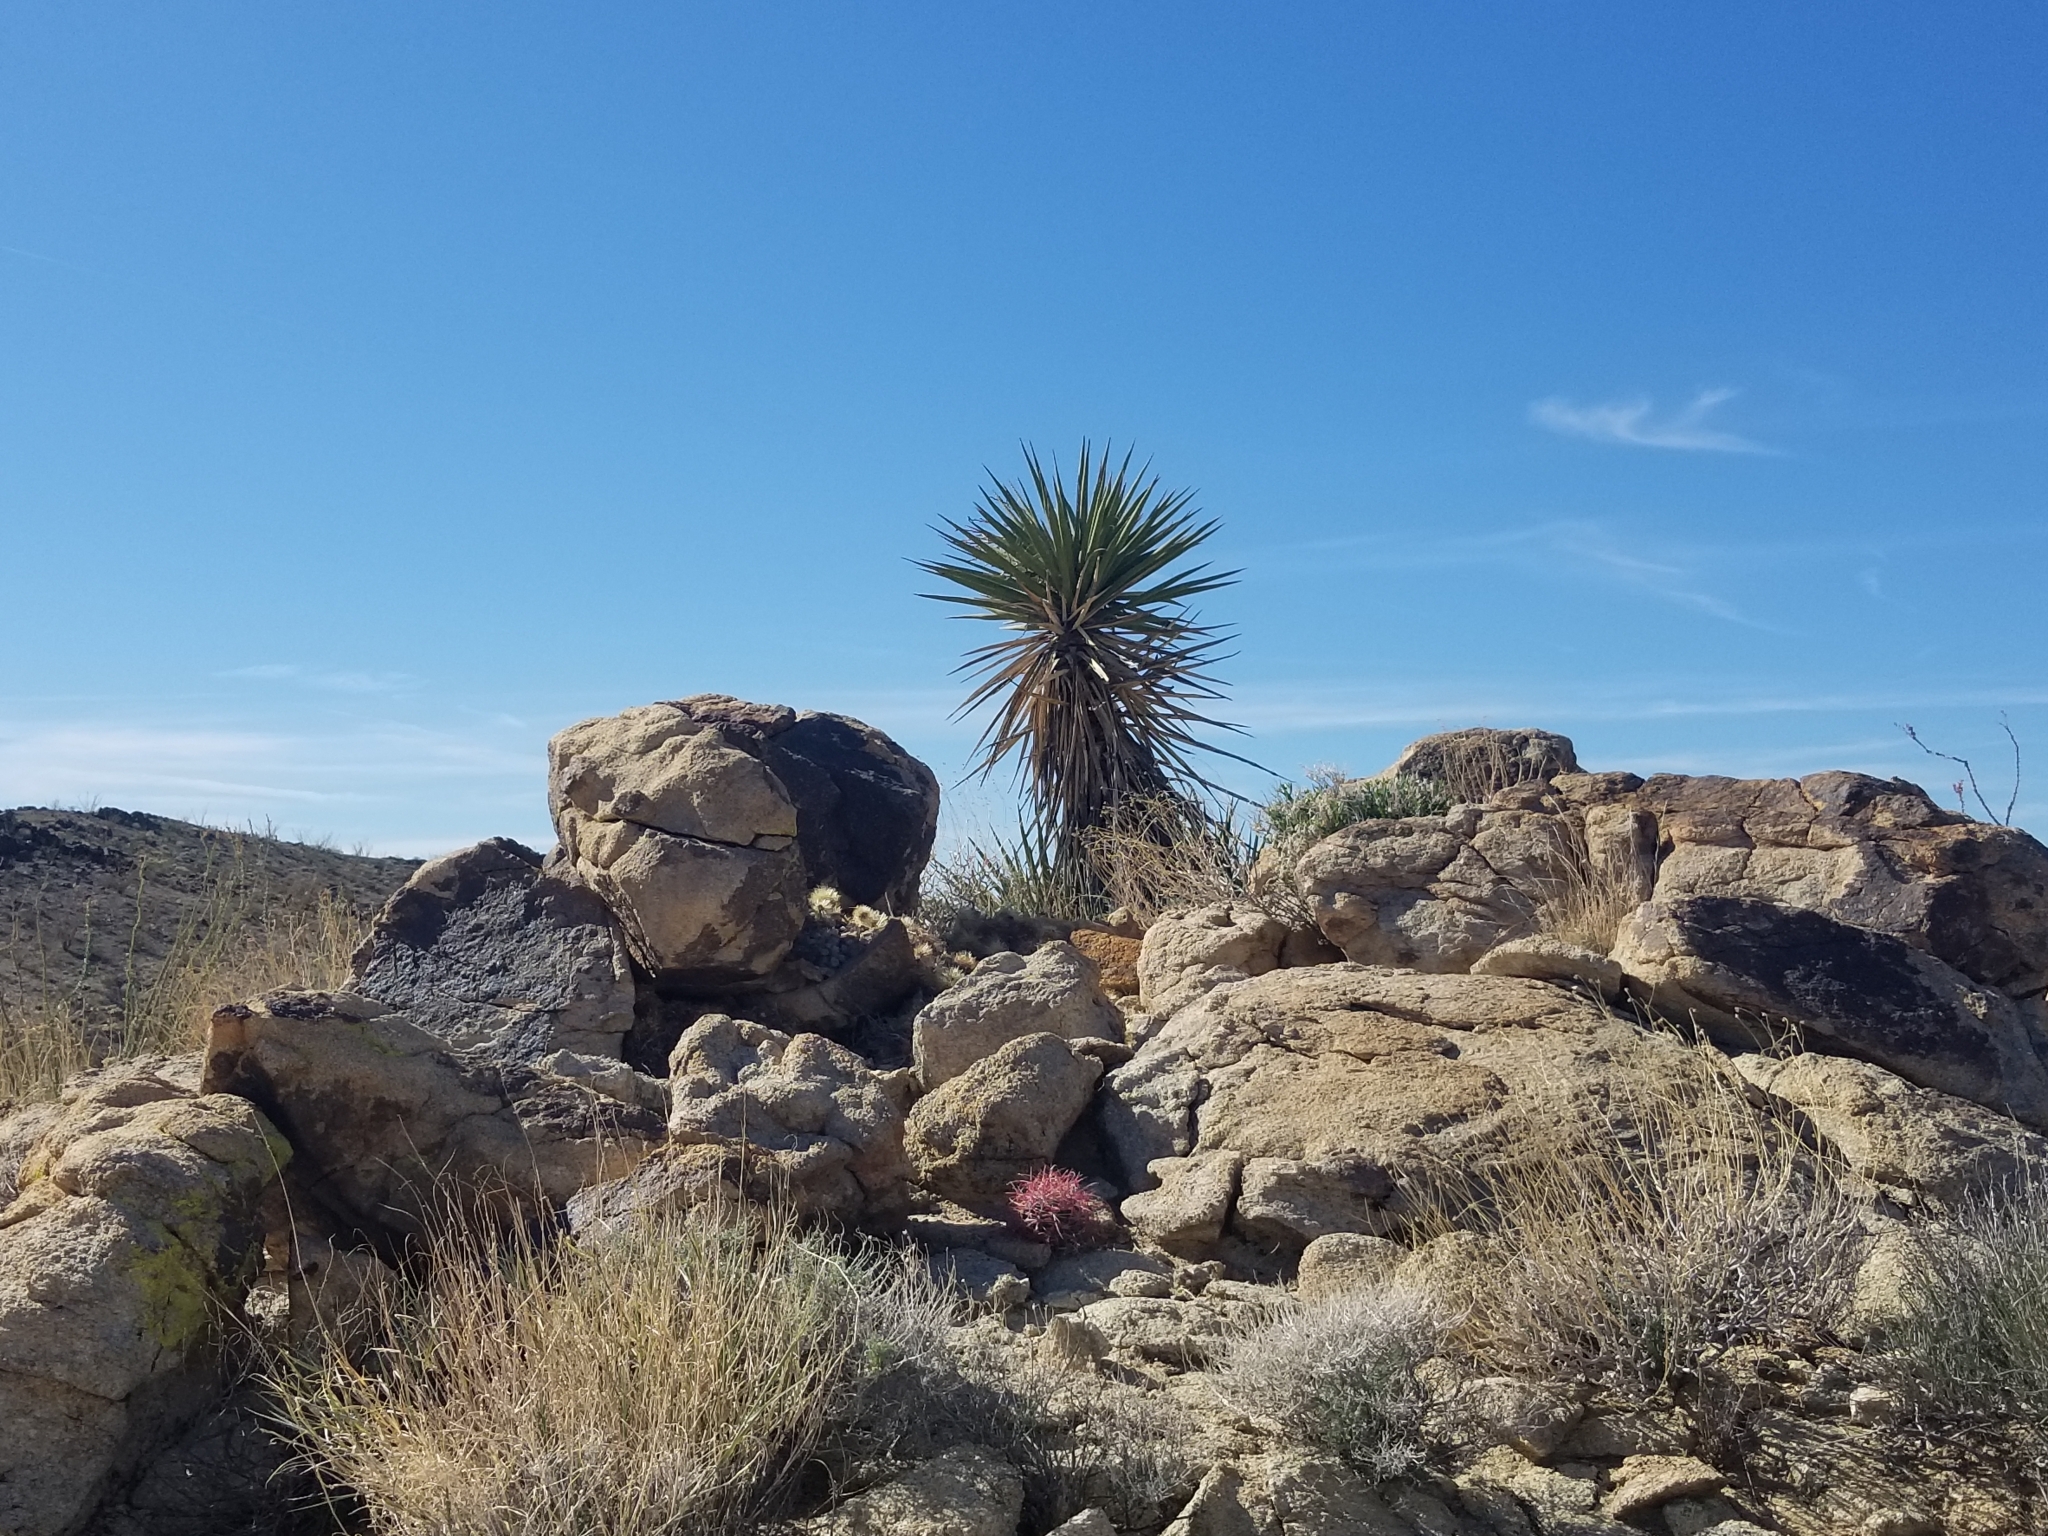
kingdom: Plantae
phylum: Tracheophyta
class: Liliopsida
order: Asparagales
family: Asparagaceae
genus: Yucca
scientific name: Yucca schidigera
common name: Mojave yucca
